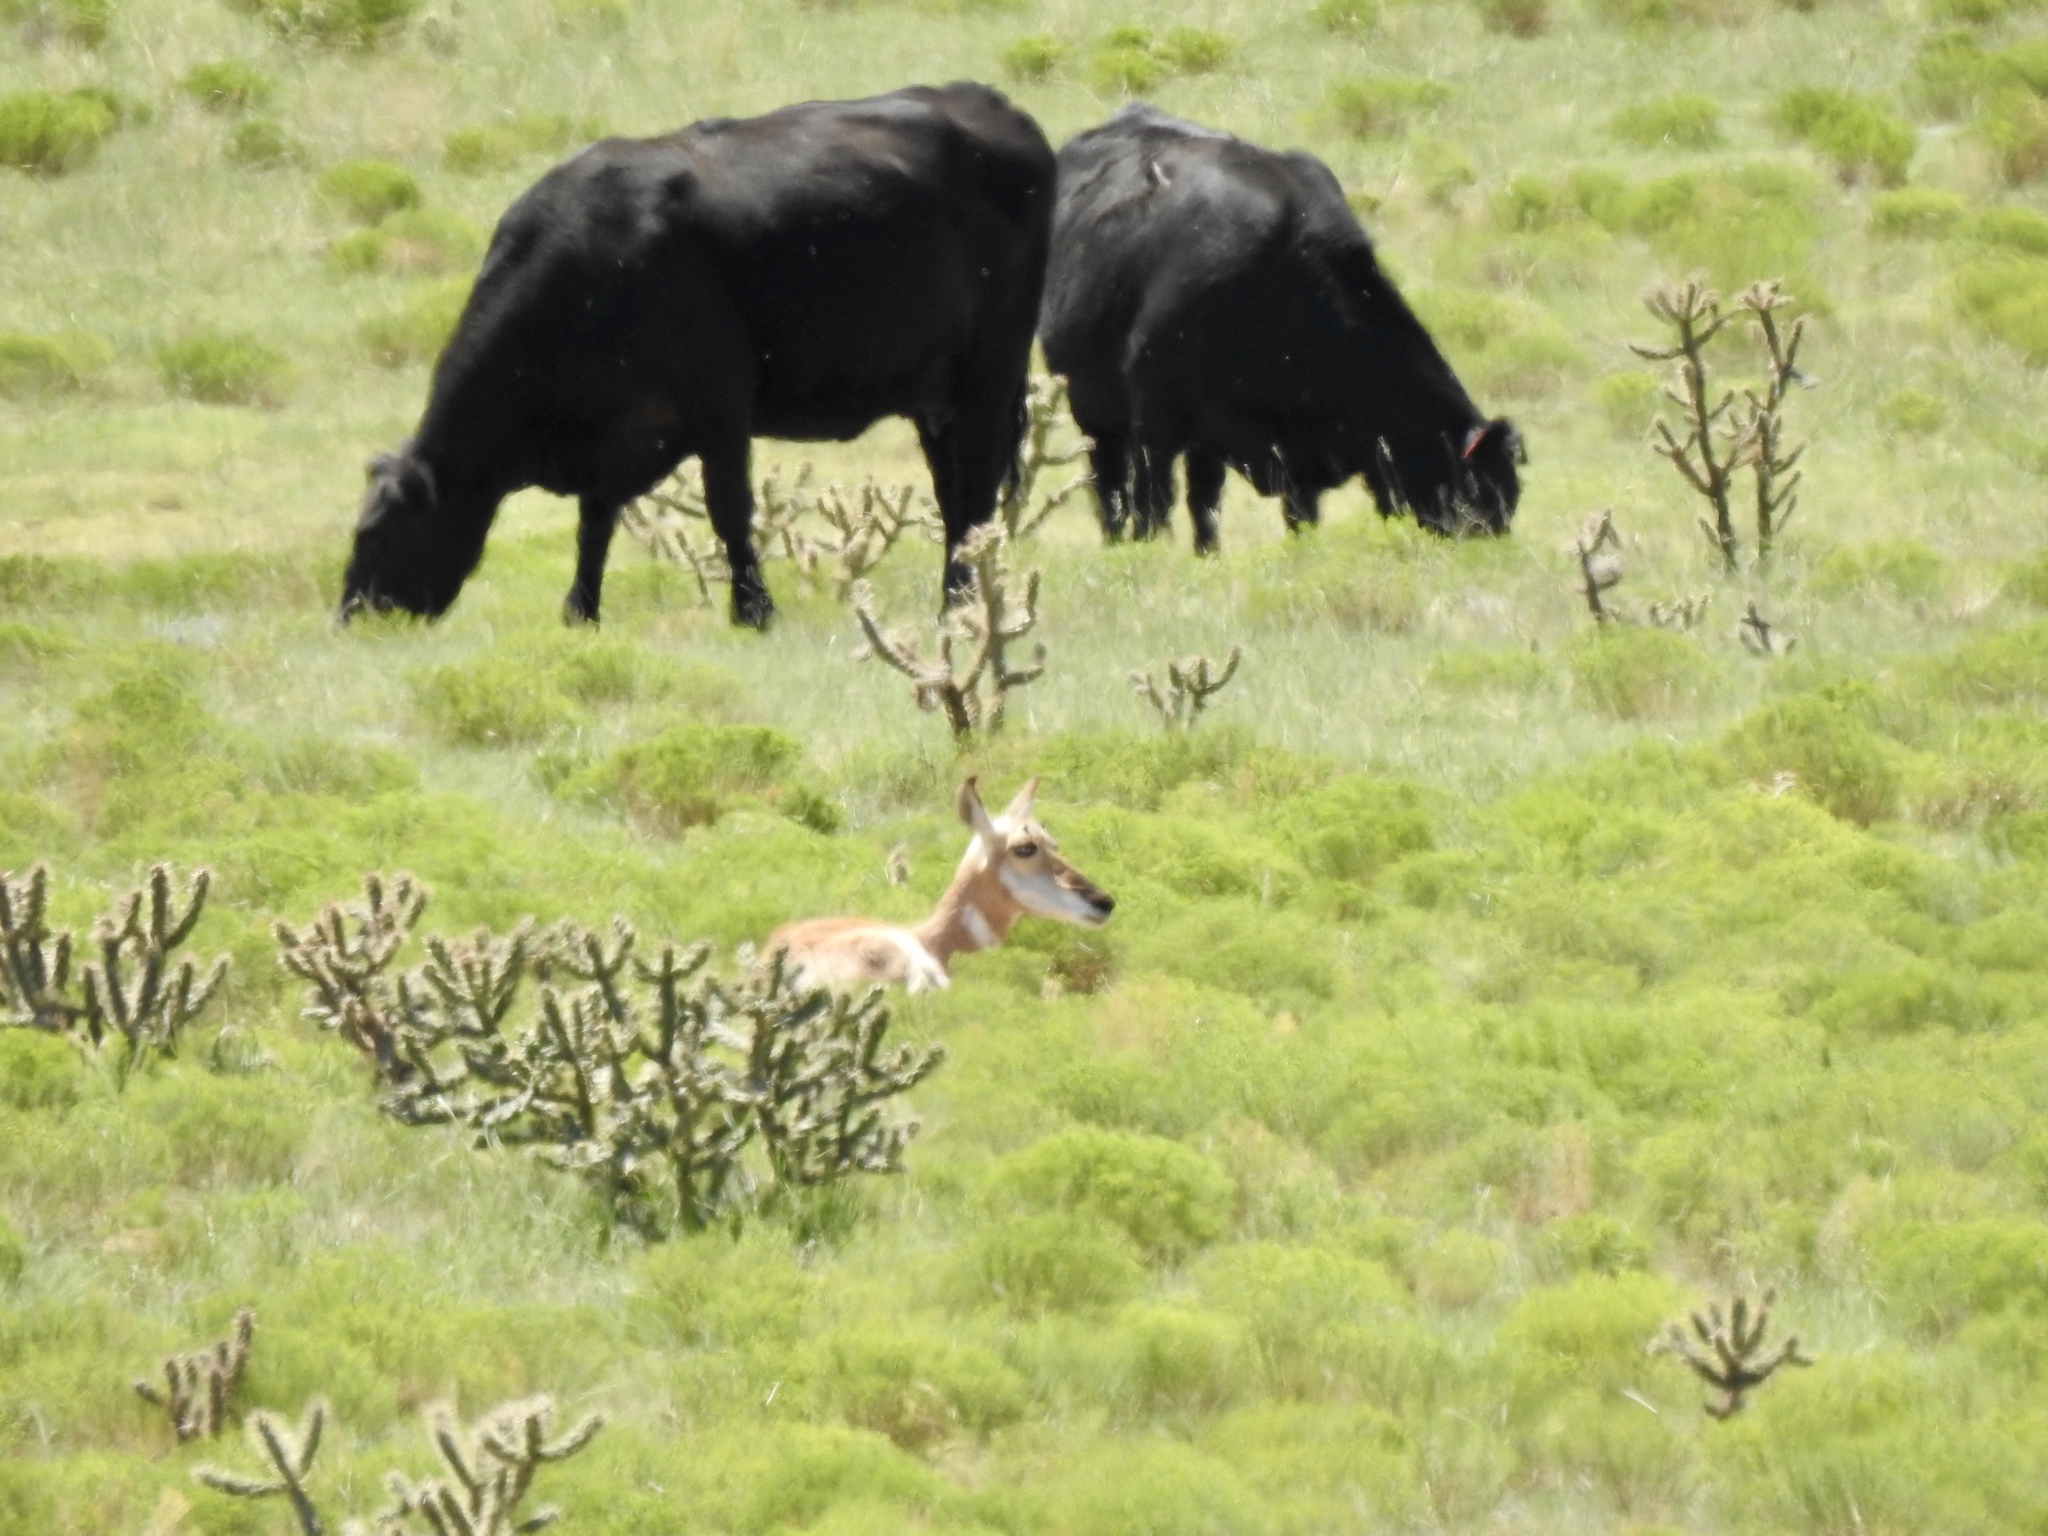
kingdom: Animalia
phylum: Chordata
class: Mammalia
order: Artiodactyla
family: Antilocapridae
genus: Antilocapra
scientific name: Antilocapra americana
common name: Pronghorn
